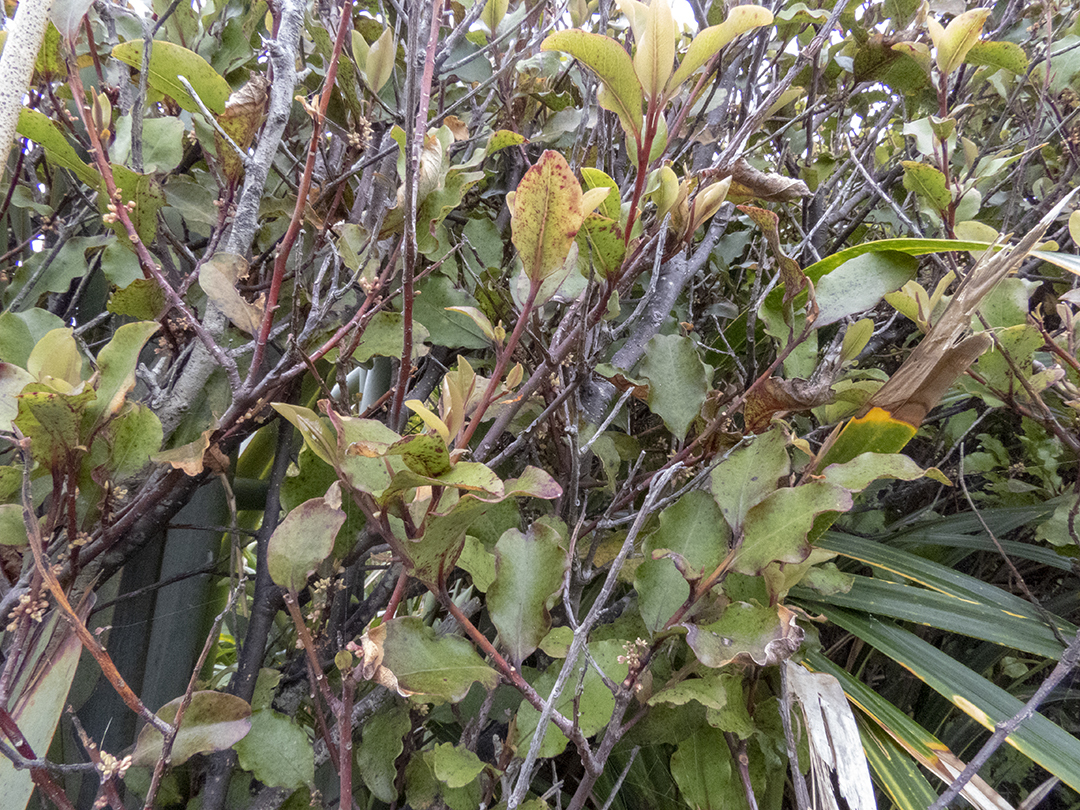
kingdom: Plantae
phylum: Tracheophyta
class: Magnoliopsida
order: Ericales
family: Primulaceae
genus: Myrsine
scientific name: Myrsine australis
